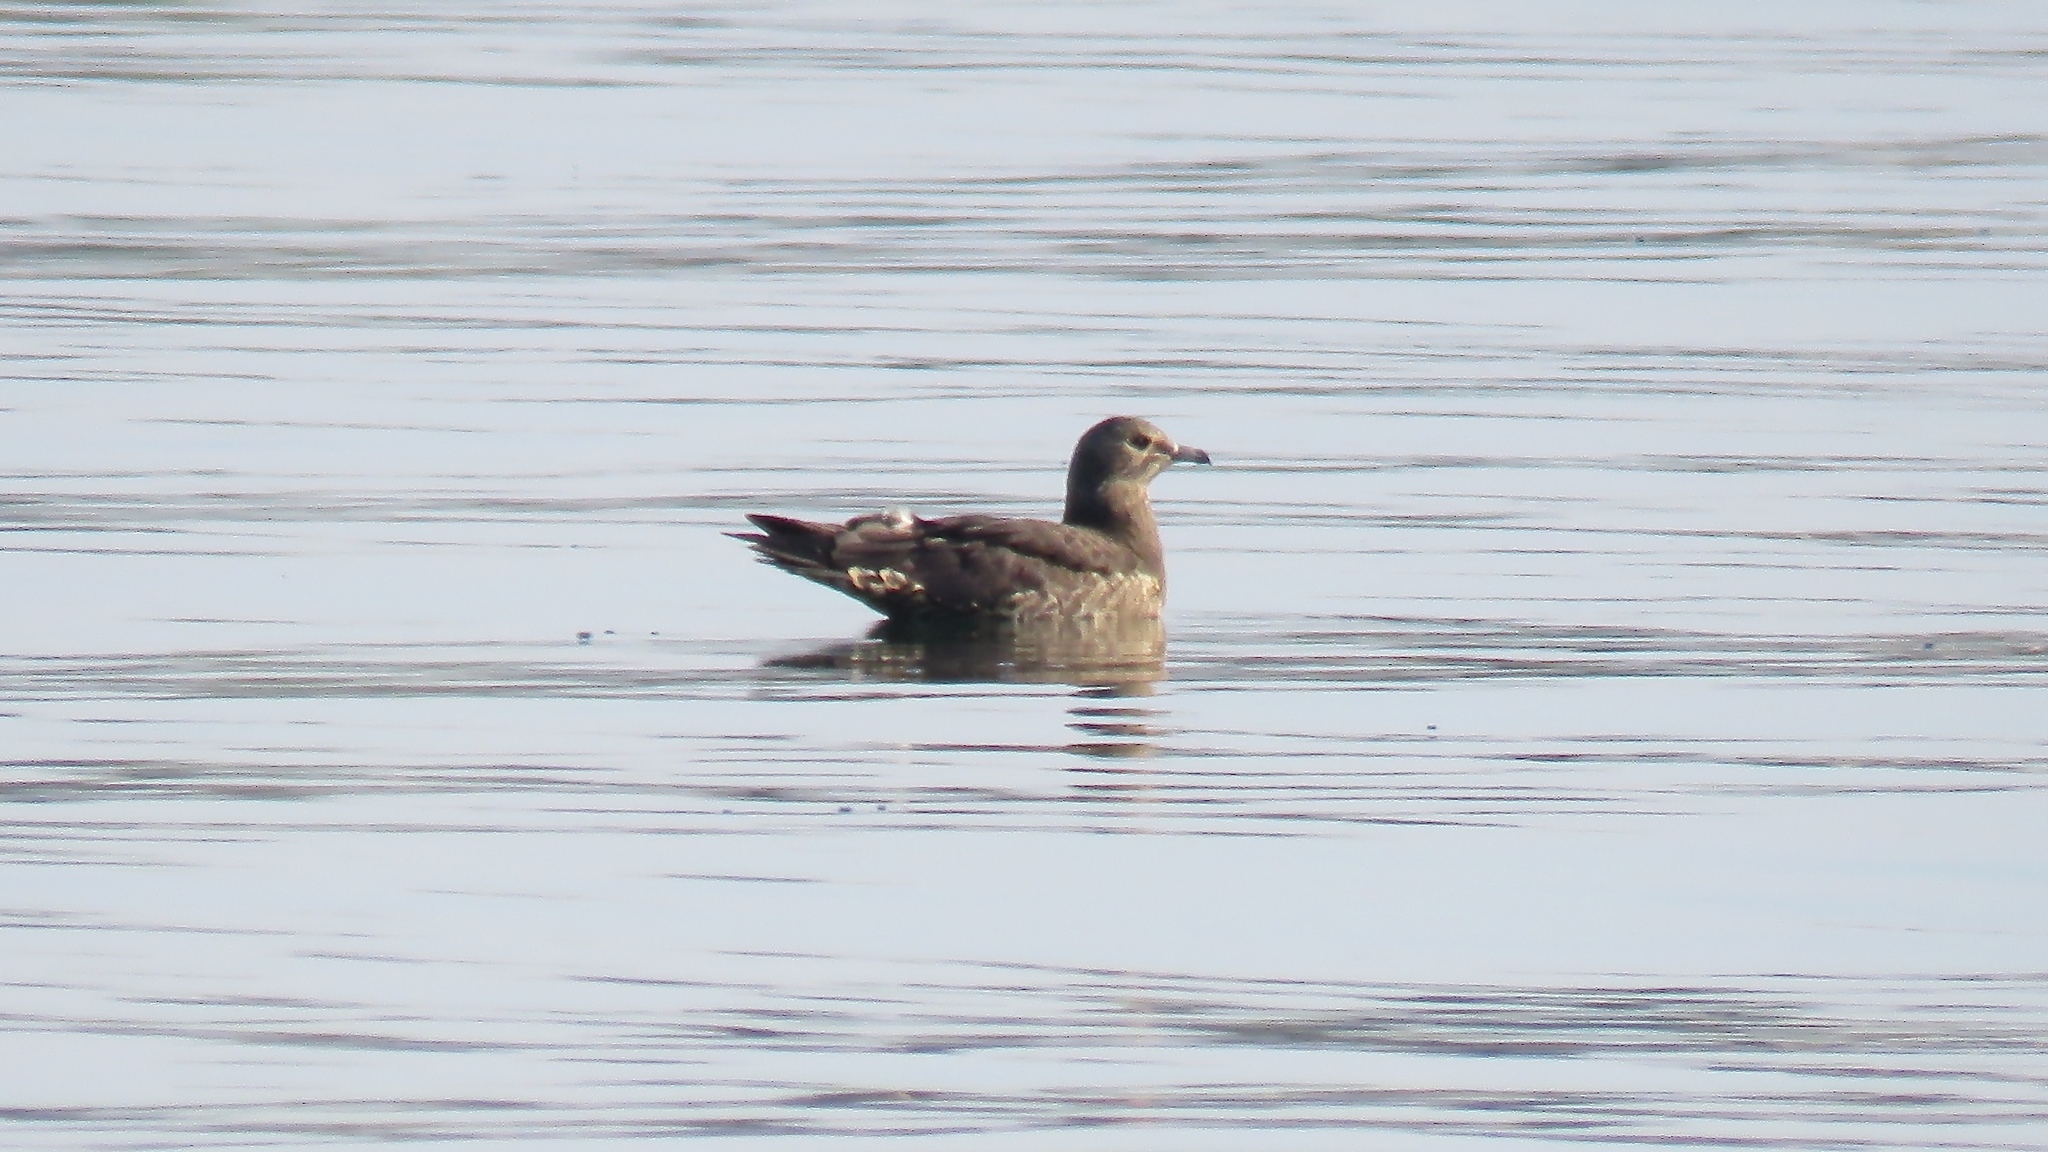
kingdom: Animalia
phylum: Chordata
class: Aves
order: Charadriiformes
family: Stercorariidae
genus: Stercorarius
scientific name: Stercorarius parasiticus
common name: Parasitic jaeger
